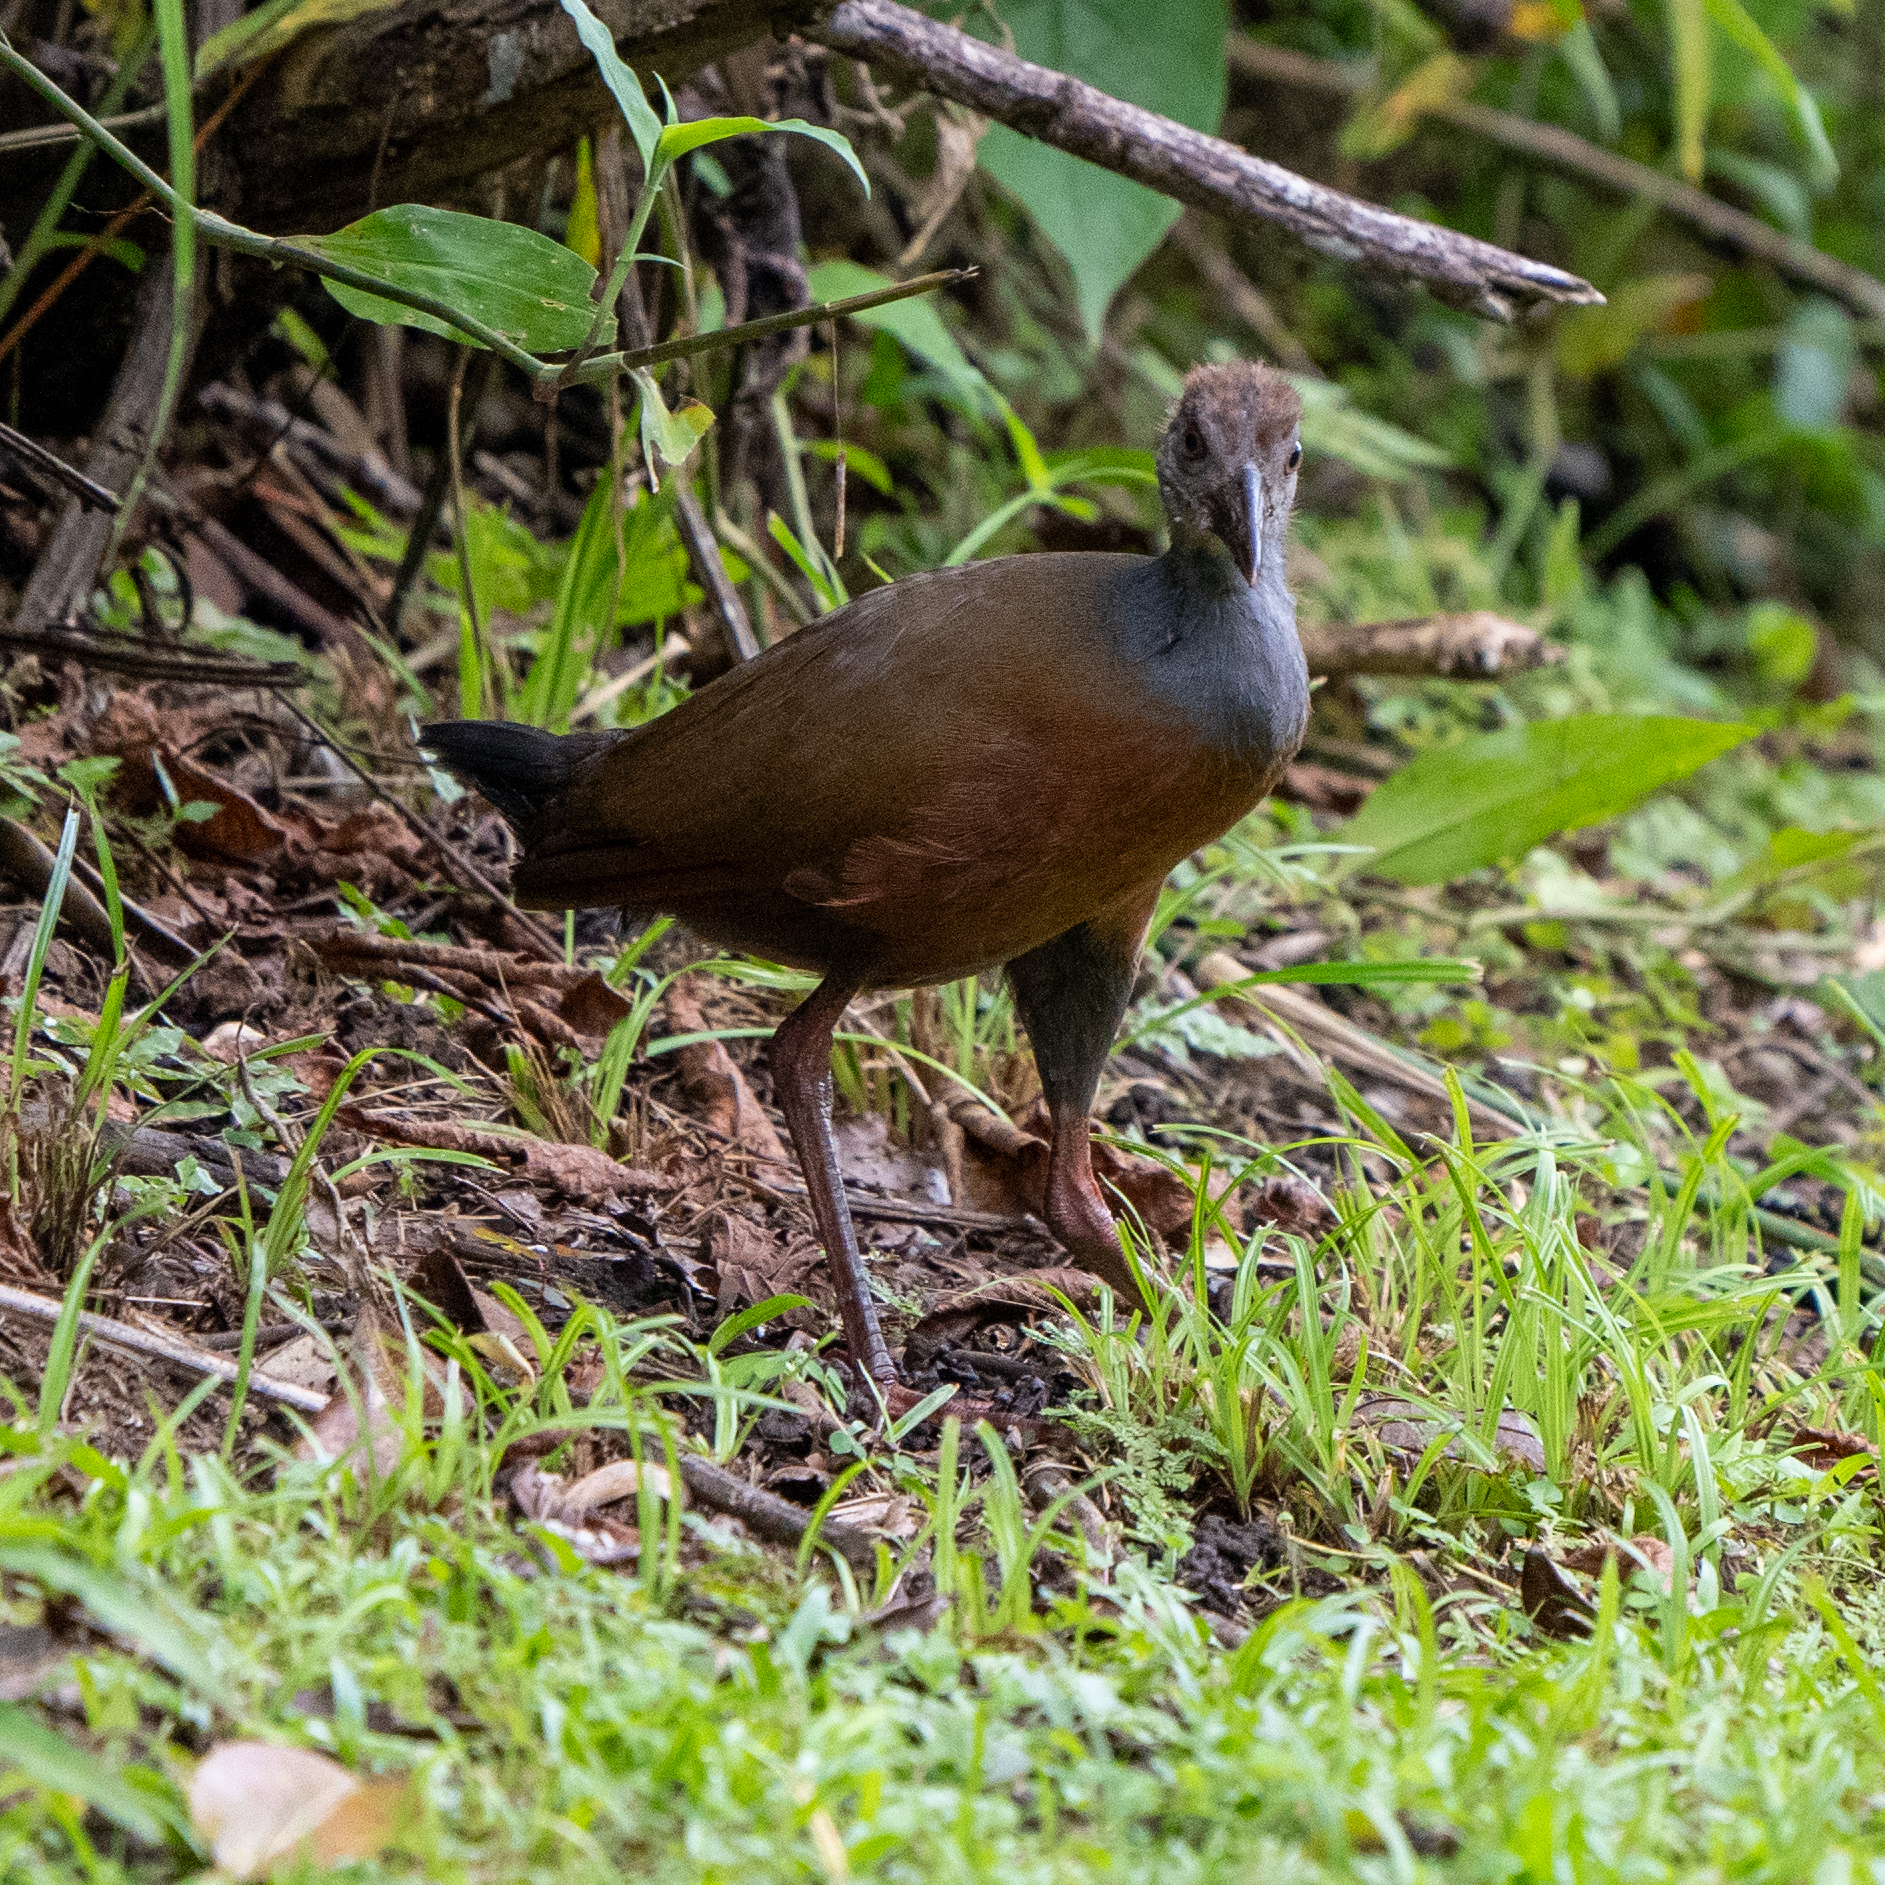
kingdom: Animalia
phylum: Chordata
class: Aves
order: Gruiformes
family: Rallidae
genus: Aramides
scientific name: Aramides cajanea
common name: Gray-necked wood-rail
